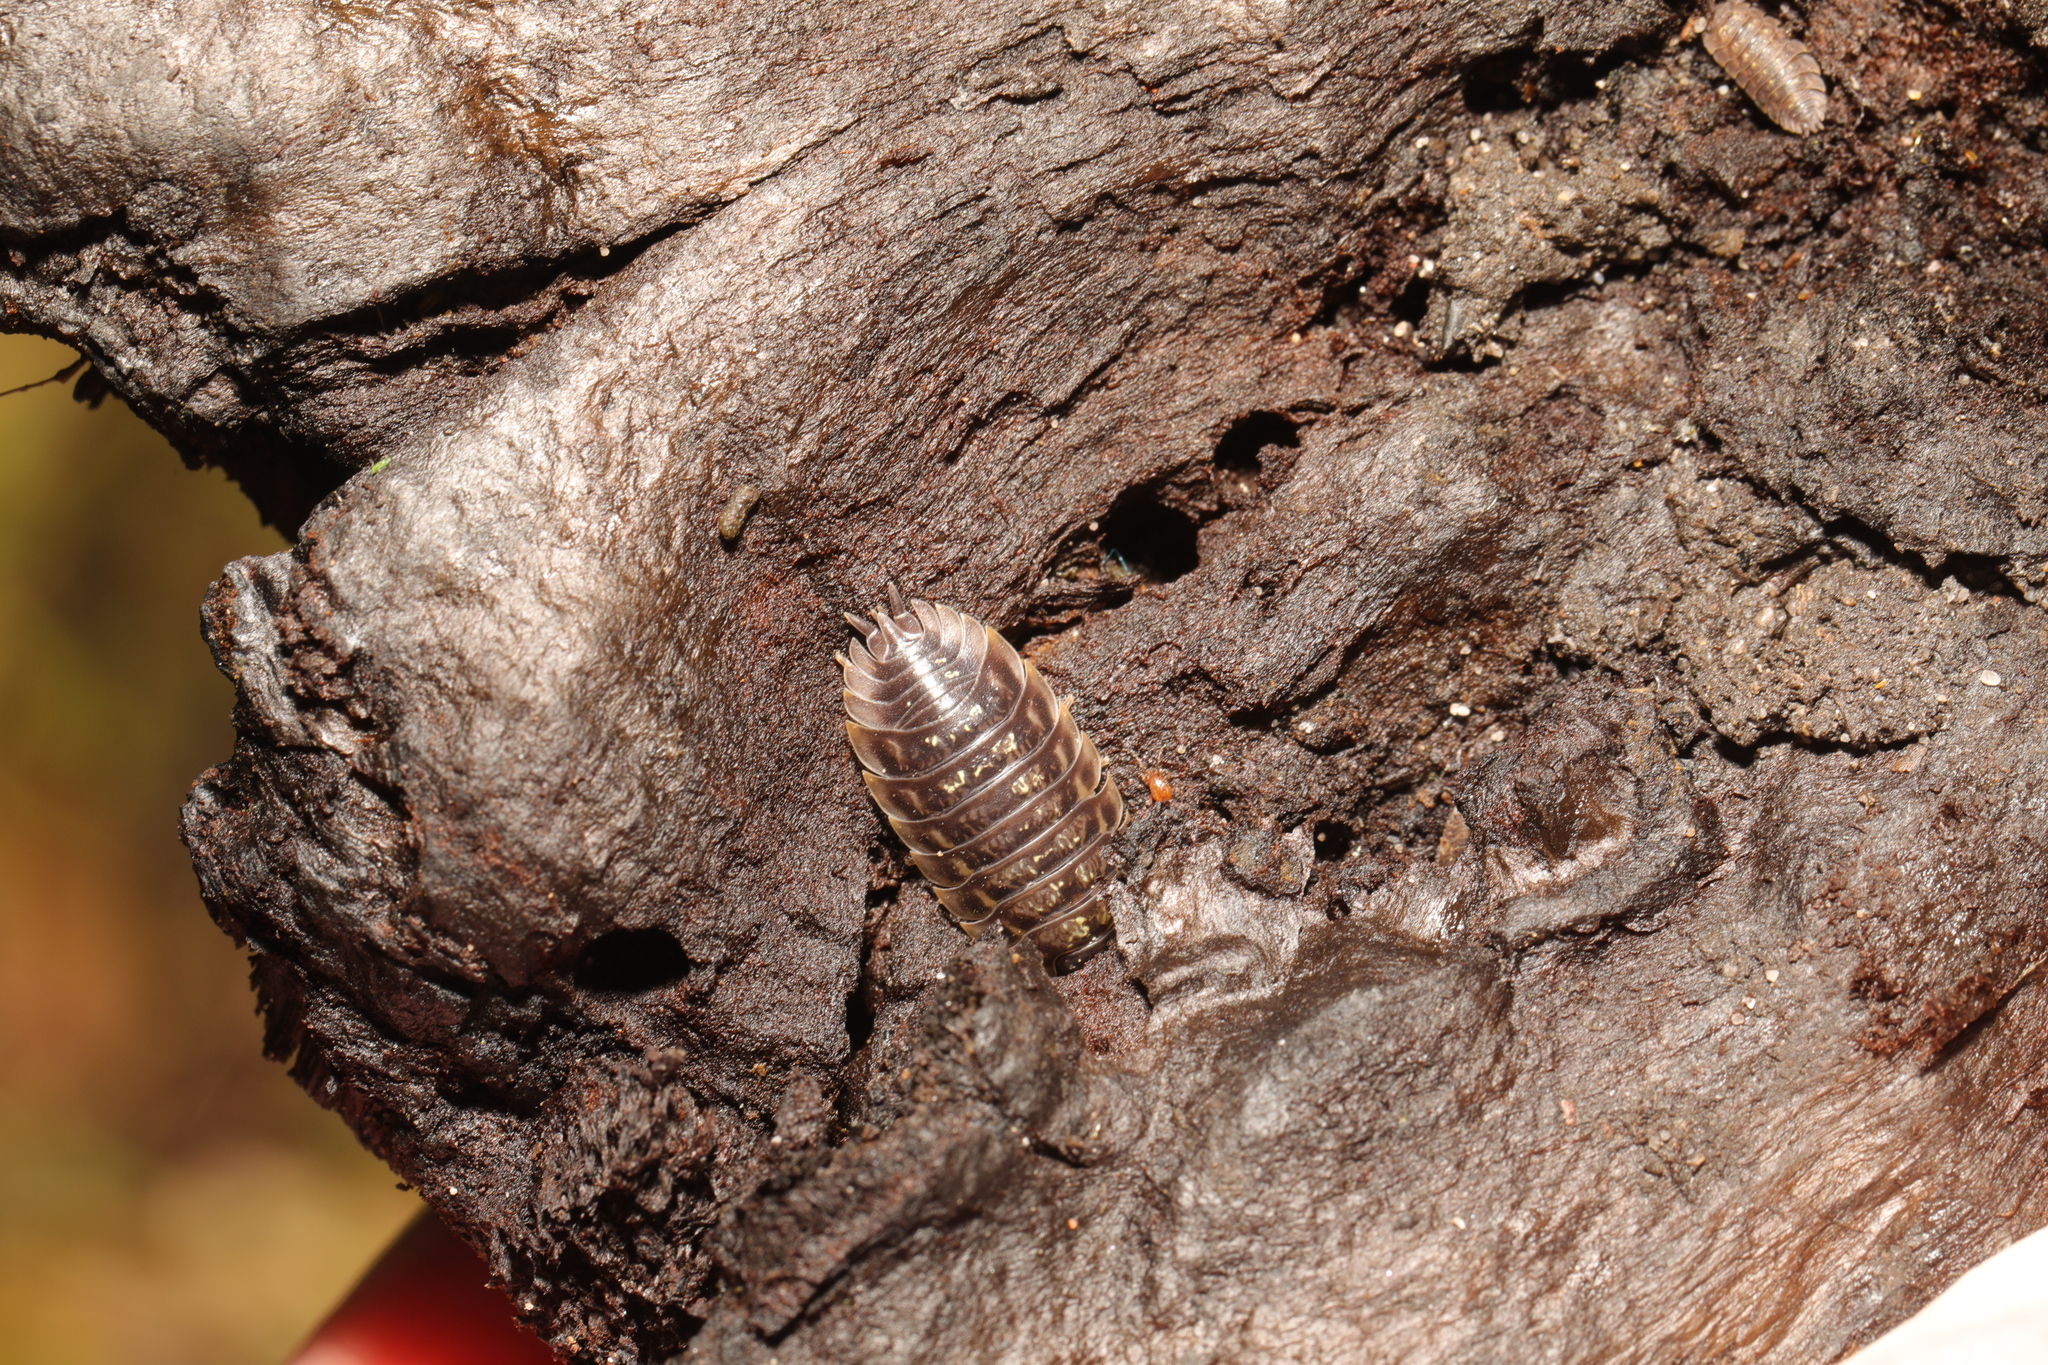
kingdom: Animalia
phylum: Arthropoda
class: Malacostraca
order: Isopoda
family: Oniscidae
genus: Oniscus
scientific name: Oniscus asellus
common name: Common shiny woodlouse
